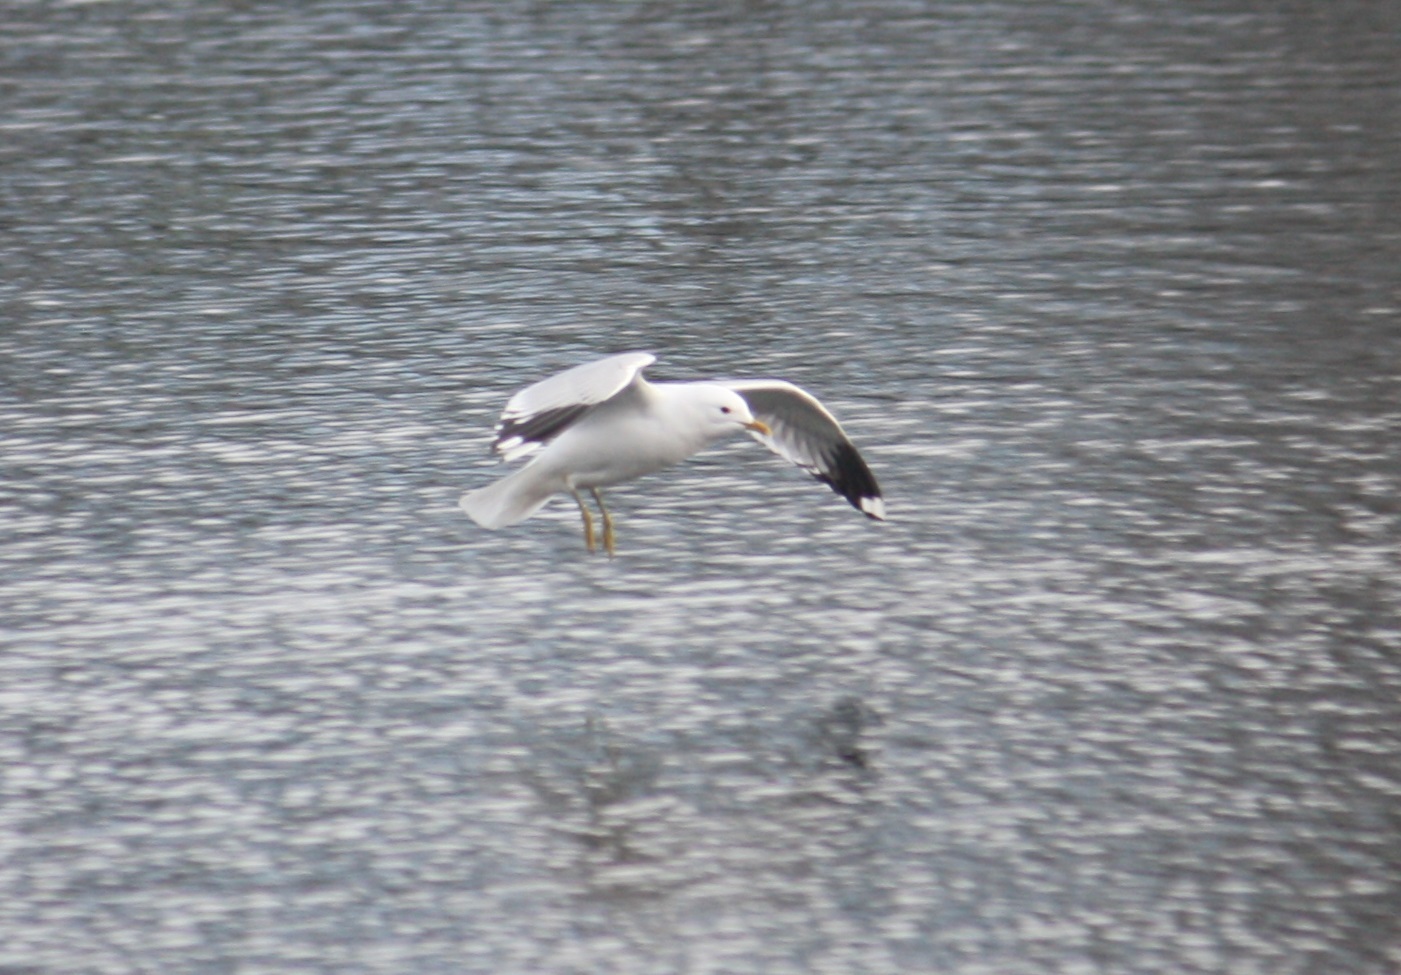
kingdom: Animalia
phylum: Chordata
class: Aves
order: Charadriiformes
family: Laridae
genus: Larus
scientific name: Larus canus
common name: Mew gull
